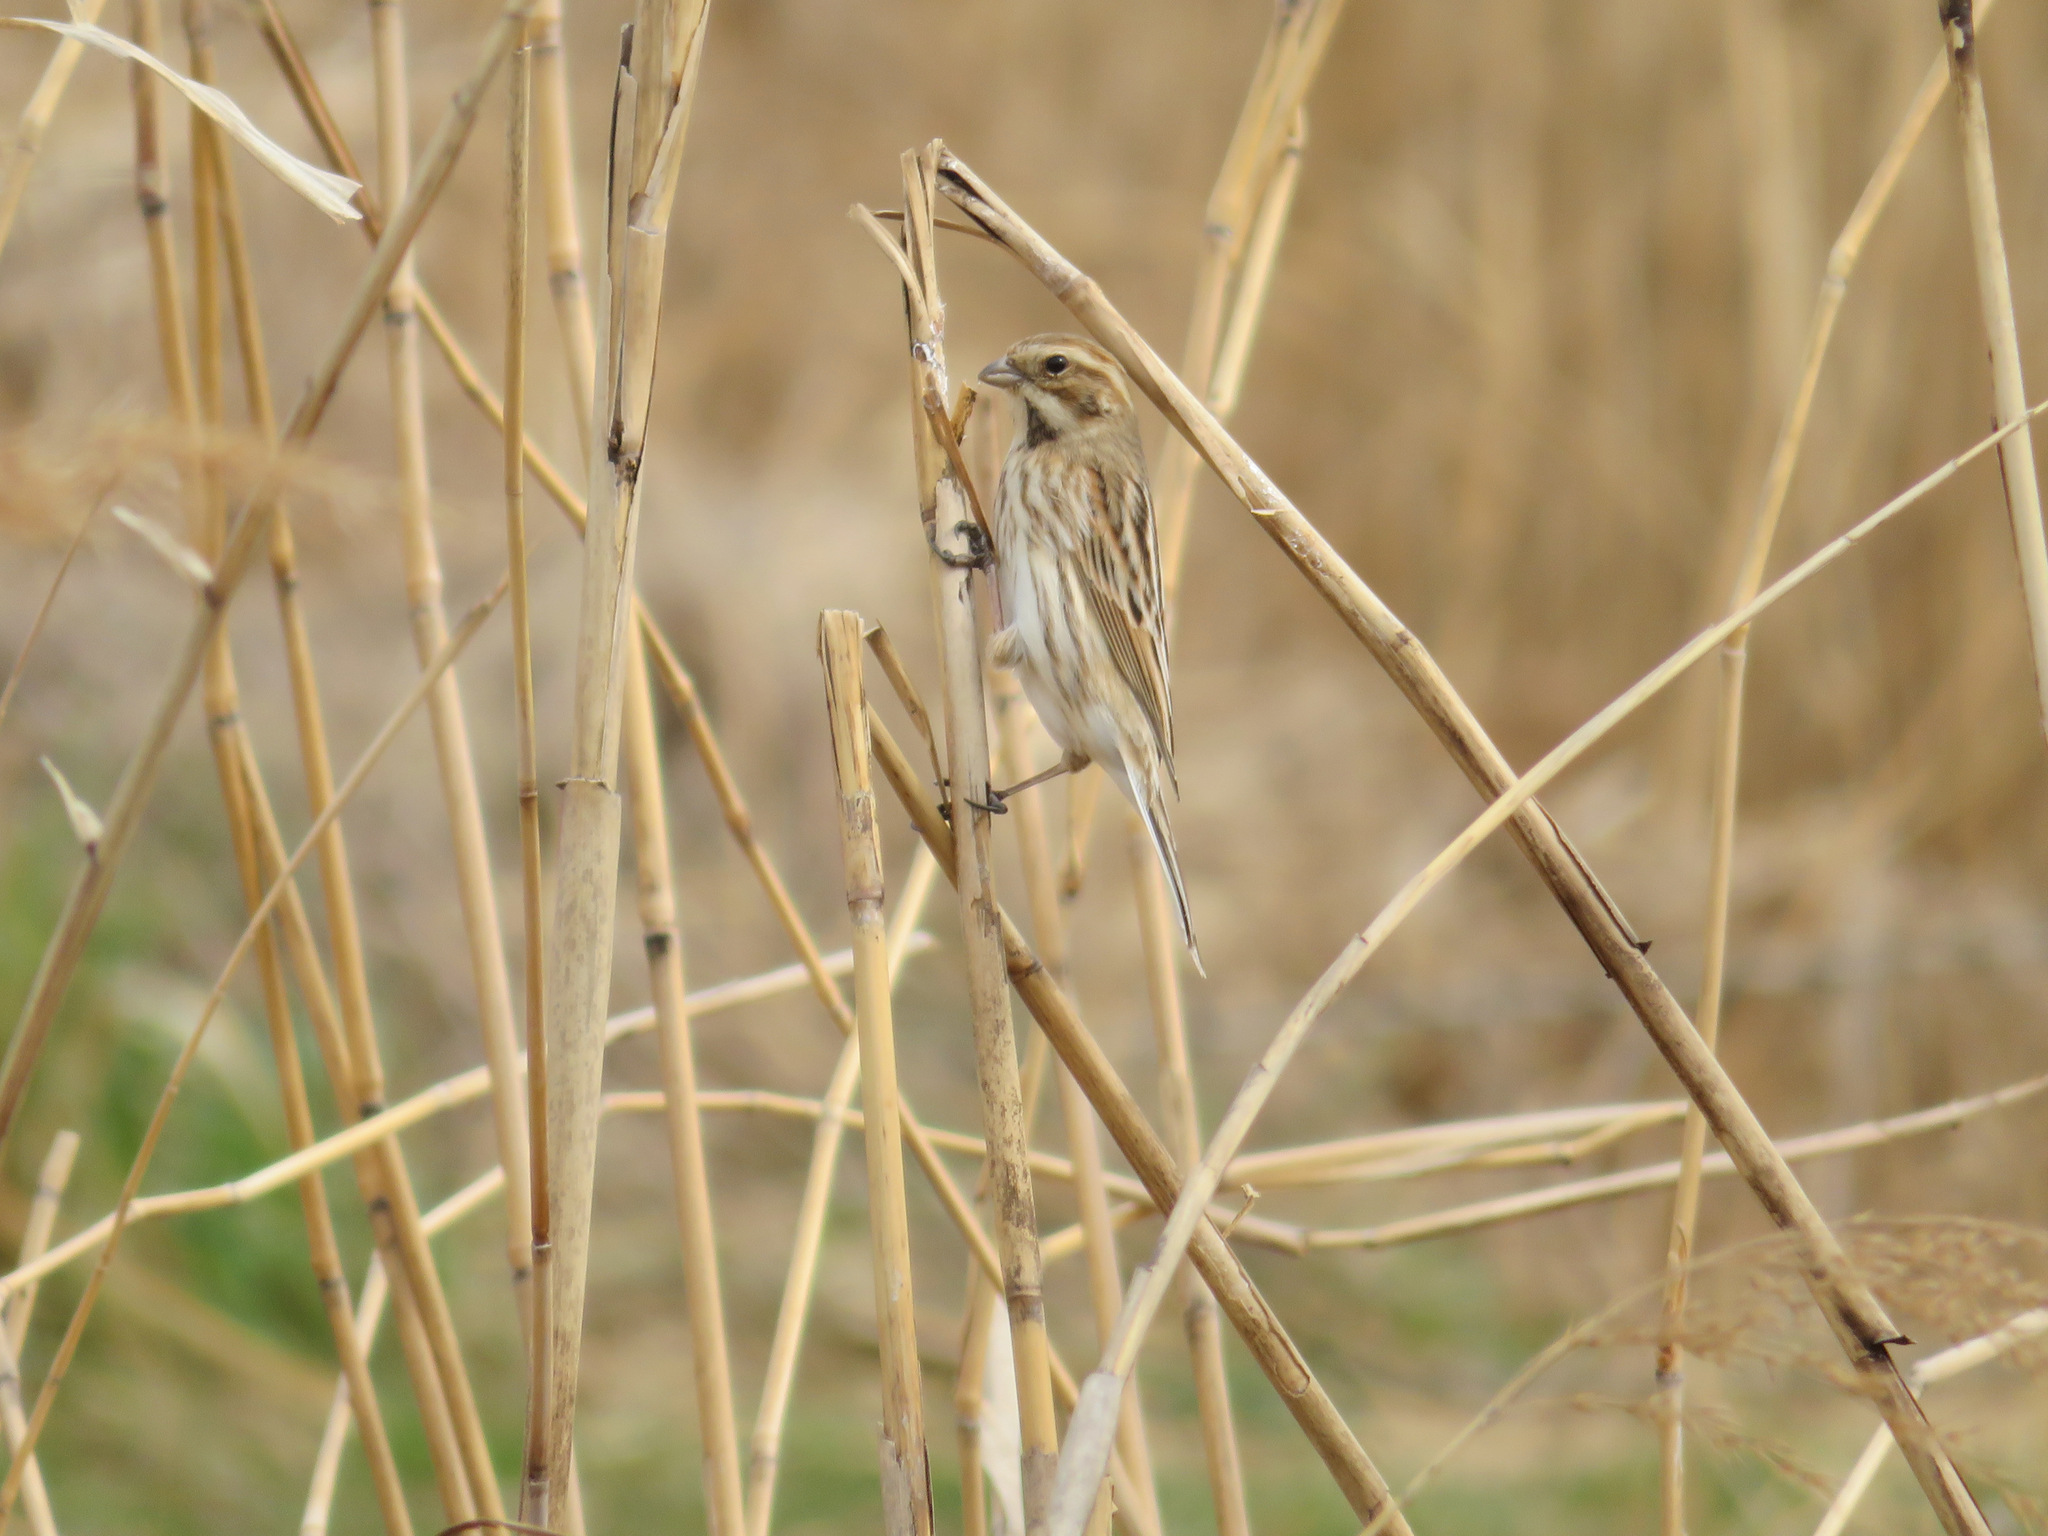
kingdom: Animalia
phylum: Chordata
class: Aves
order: Passeriformes
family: Emberizidae
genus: Emberiza
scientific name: Emberiza schoeniclus
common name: Reed bunting
